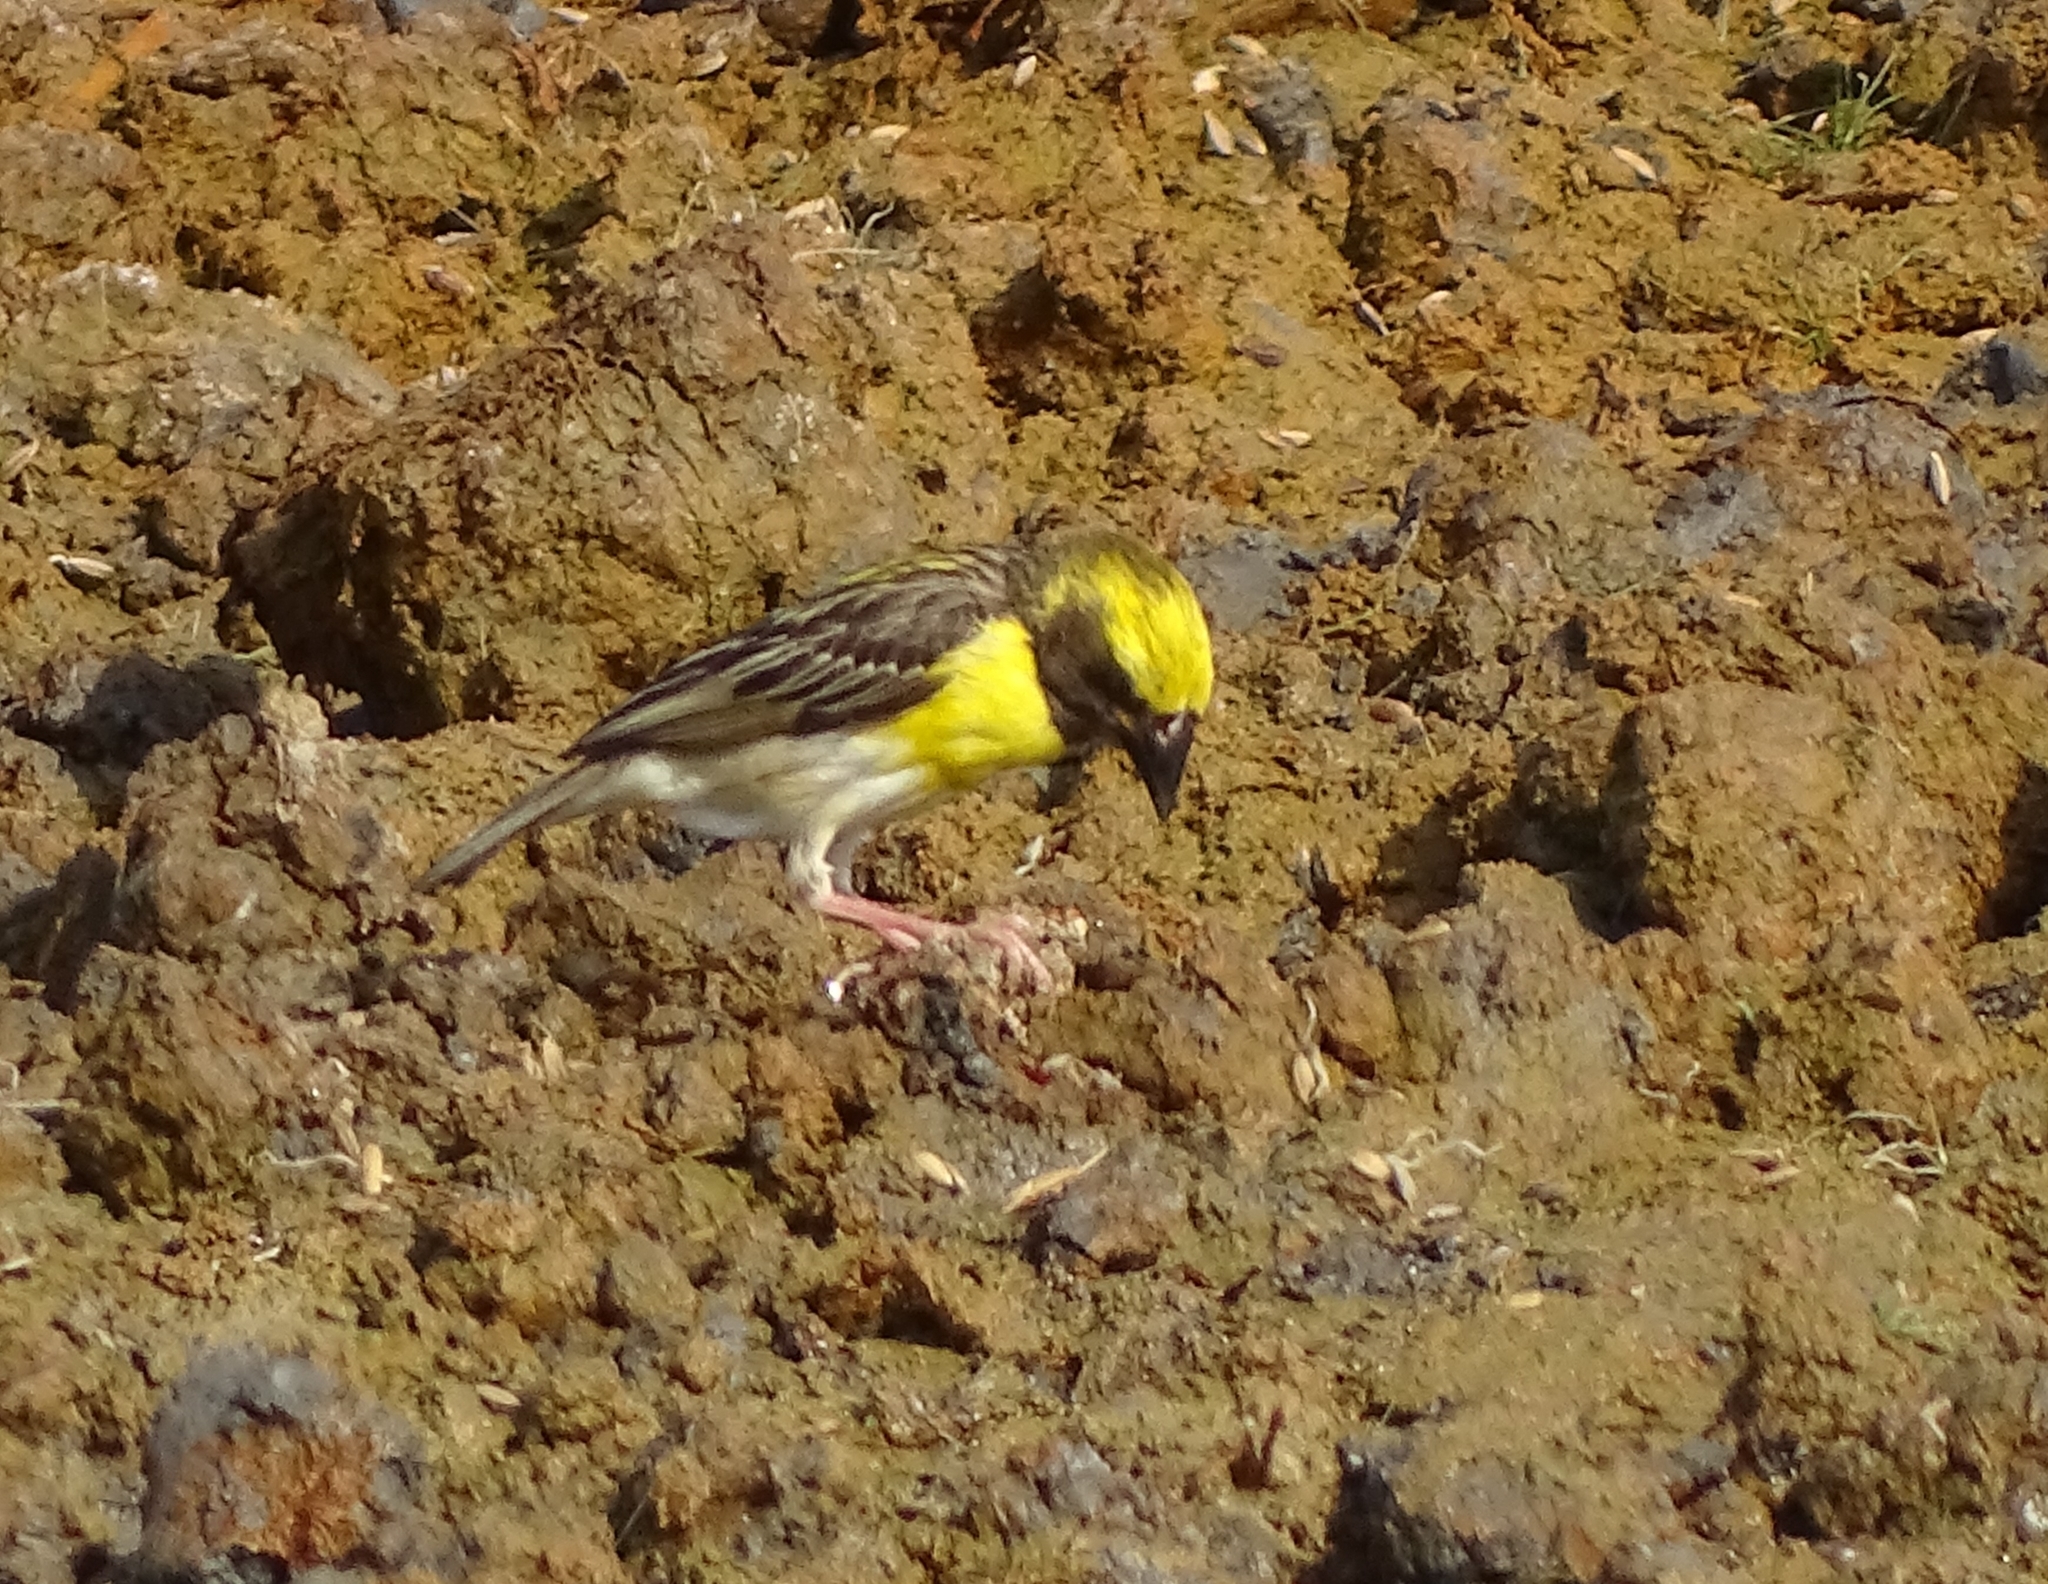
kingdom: Animalia
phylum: Chordata
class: Aves
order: Passeriformes
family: Ploceidae
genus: Ploceus
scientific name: Ploceus philippinus
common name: Baya weaver
